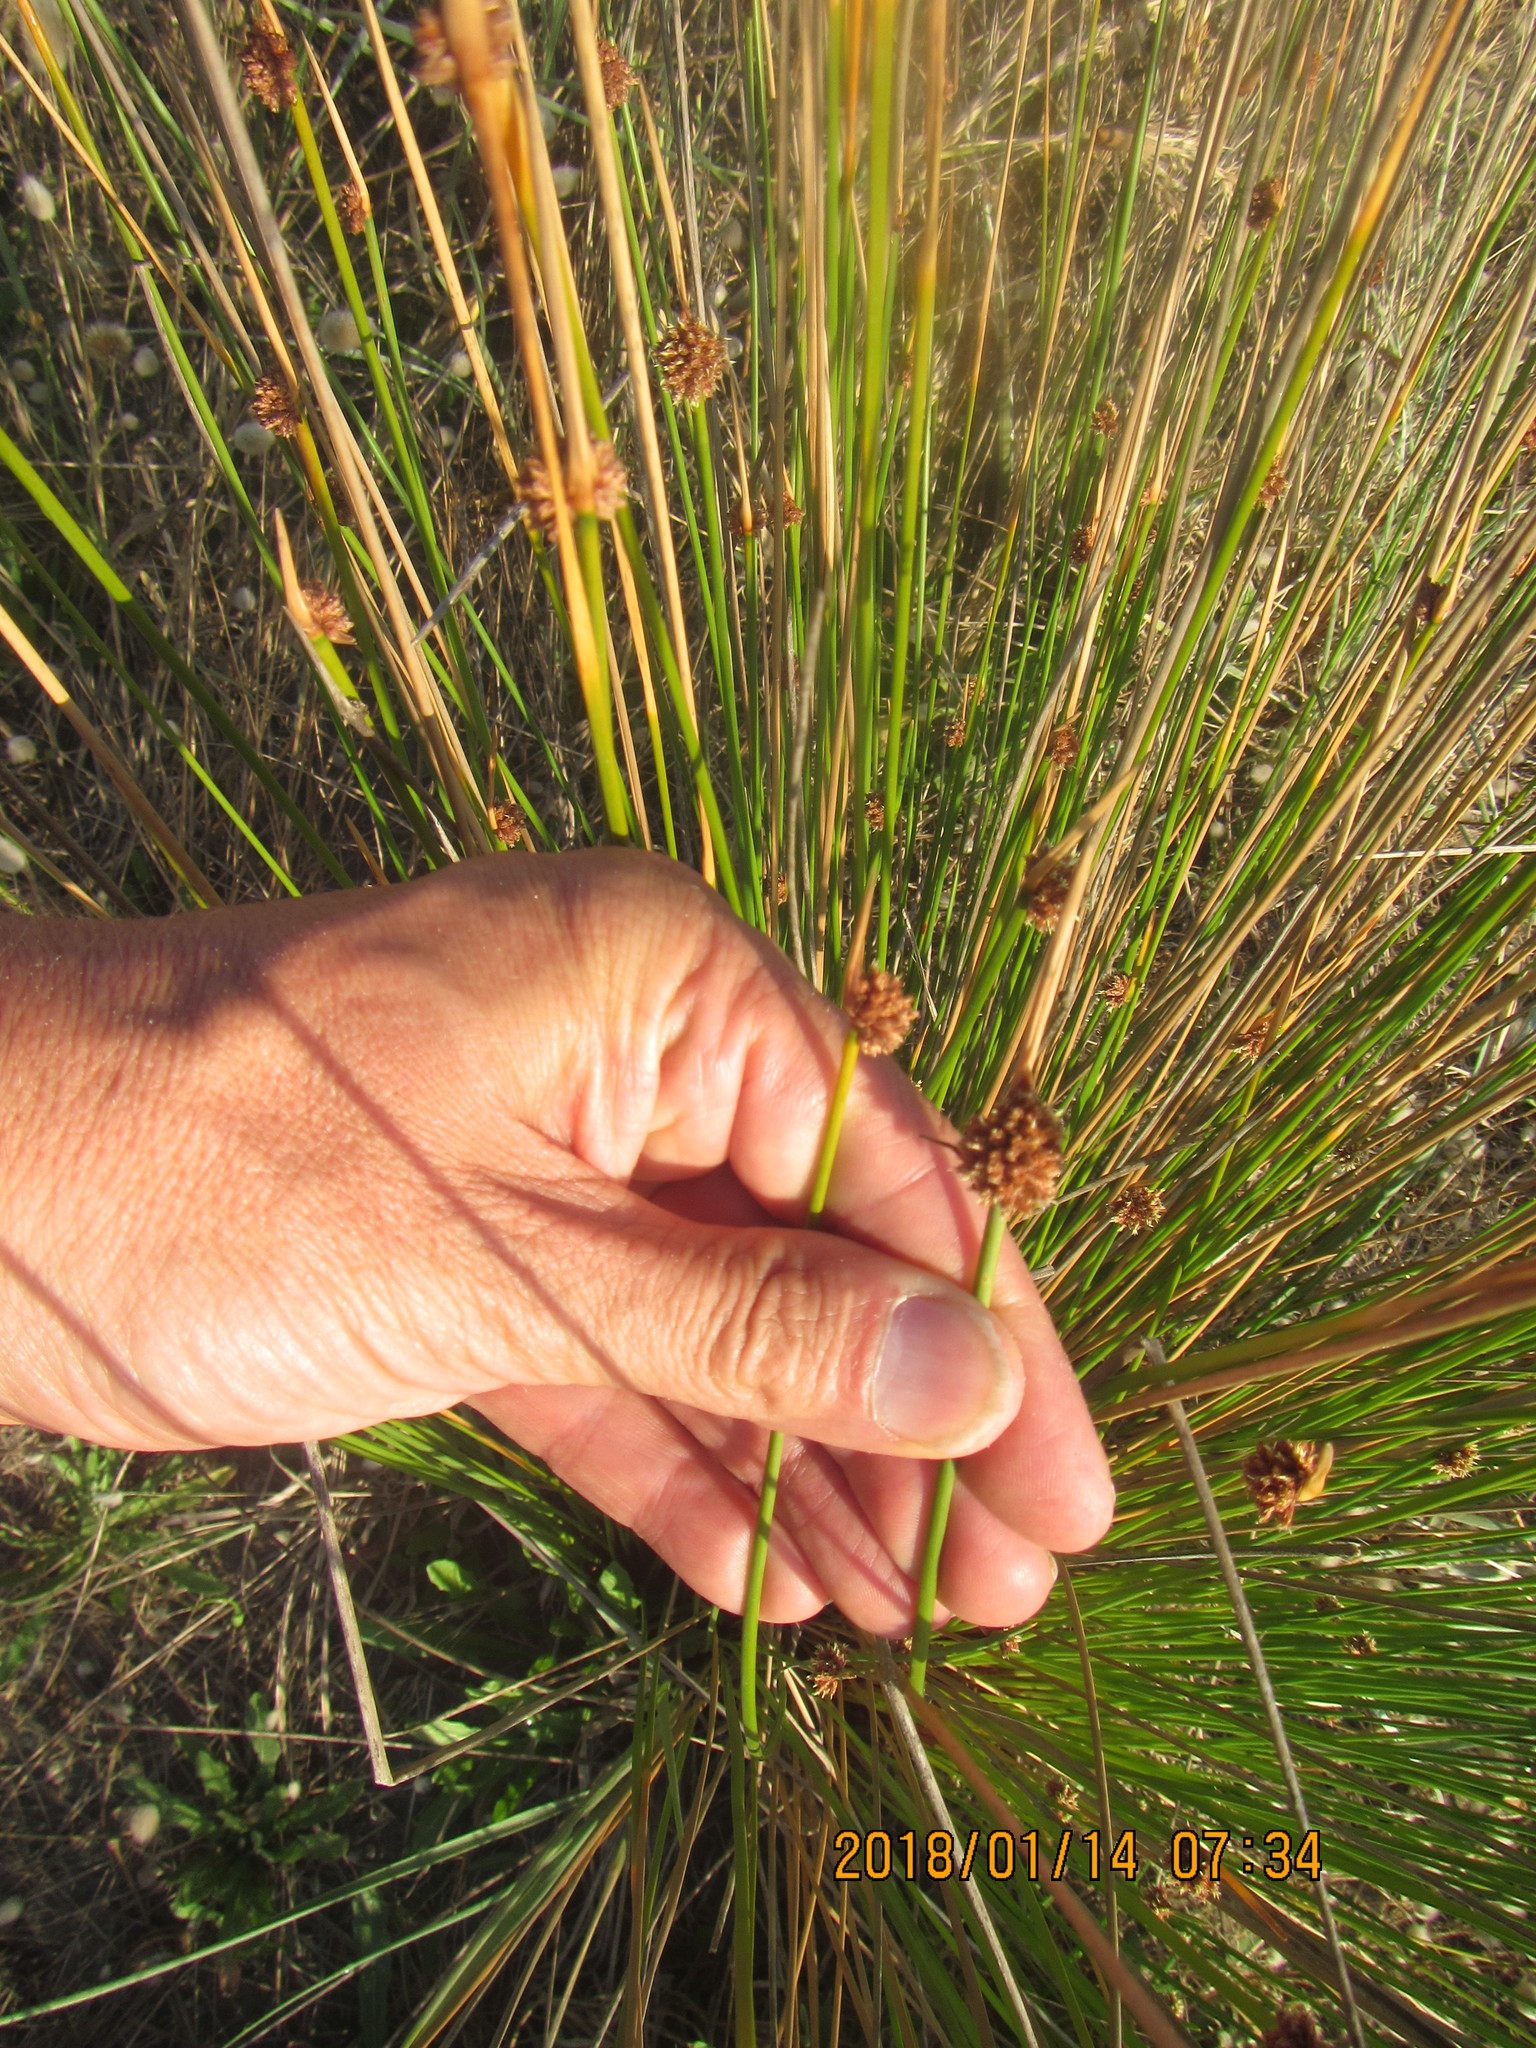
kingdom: Plantae
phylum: Tracheophyta
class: Liliopsida
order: Poales
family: Cyperaceae
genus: Ficinia
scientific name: Ficinia nodosa
